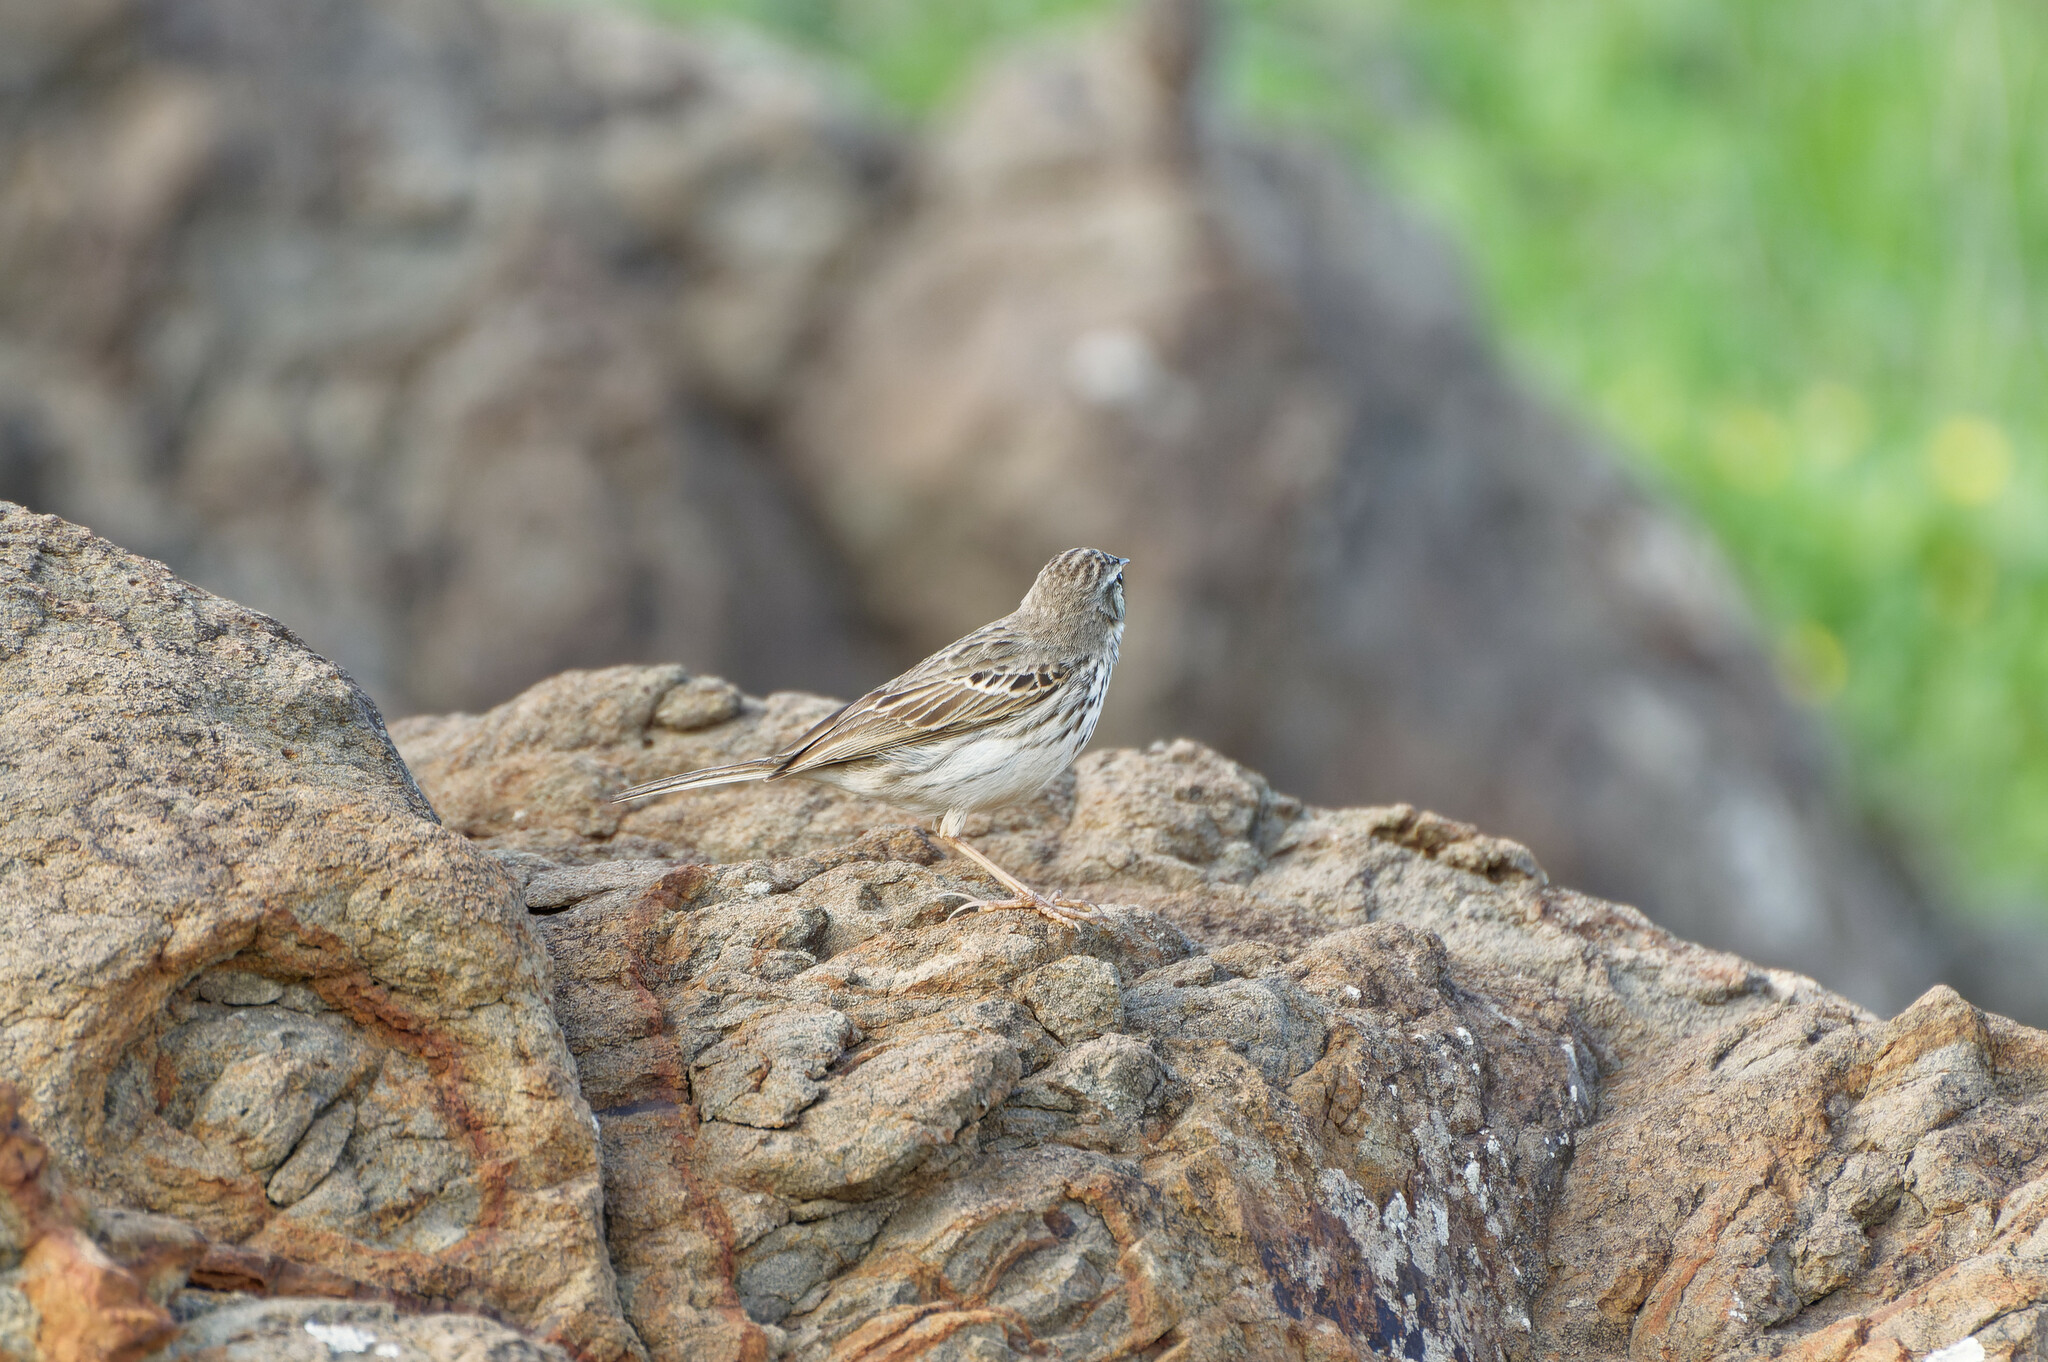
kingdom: Animalia
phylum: Chordata
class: Aves
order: Passeriformes
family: Motacillidae
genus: Anthus
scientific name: Anthus berthelotii
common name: Berthelot's pipit
